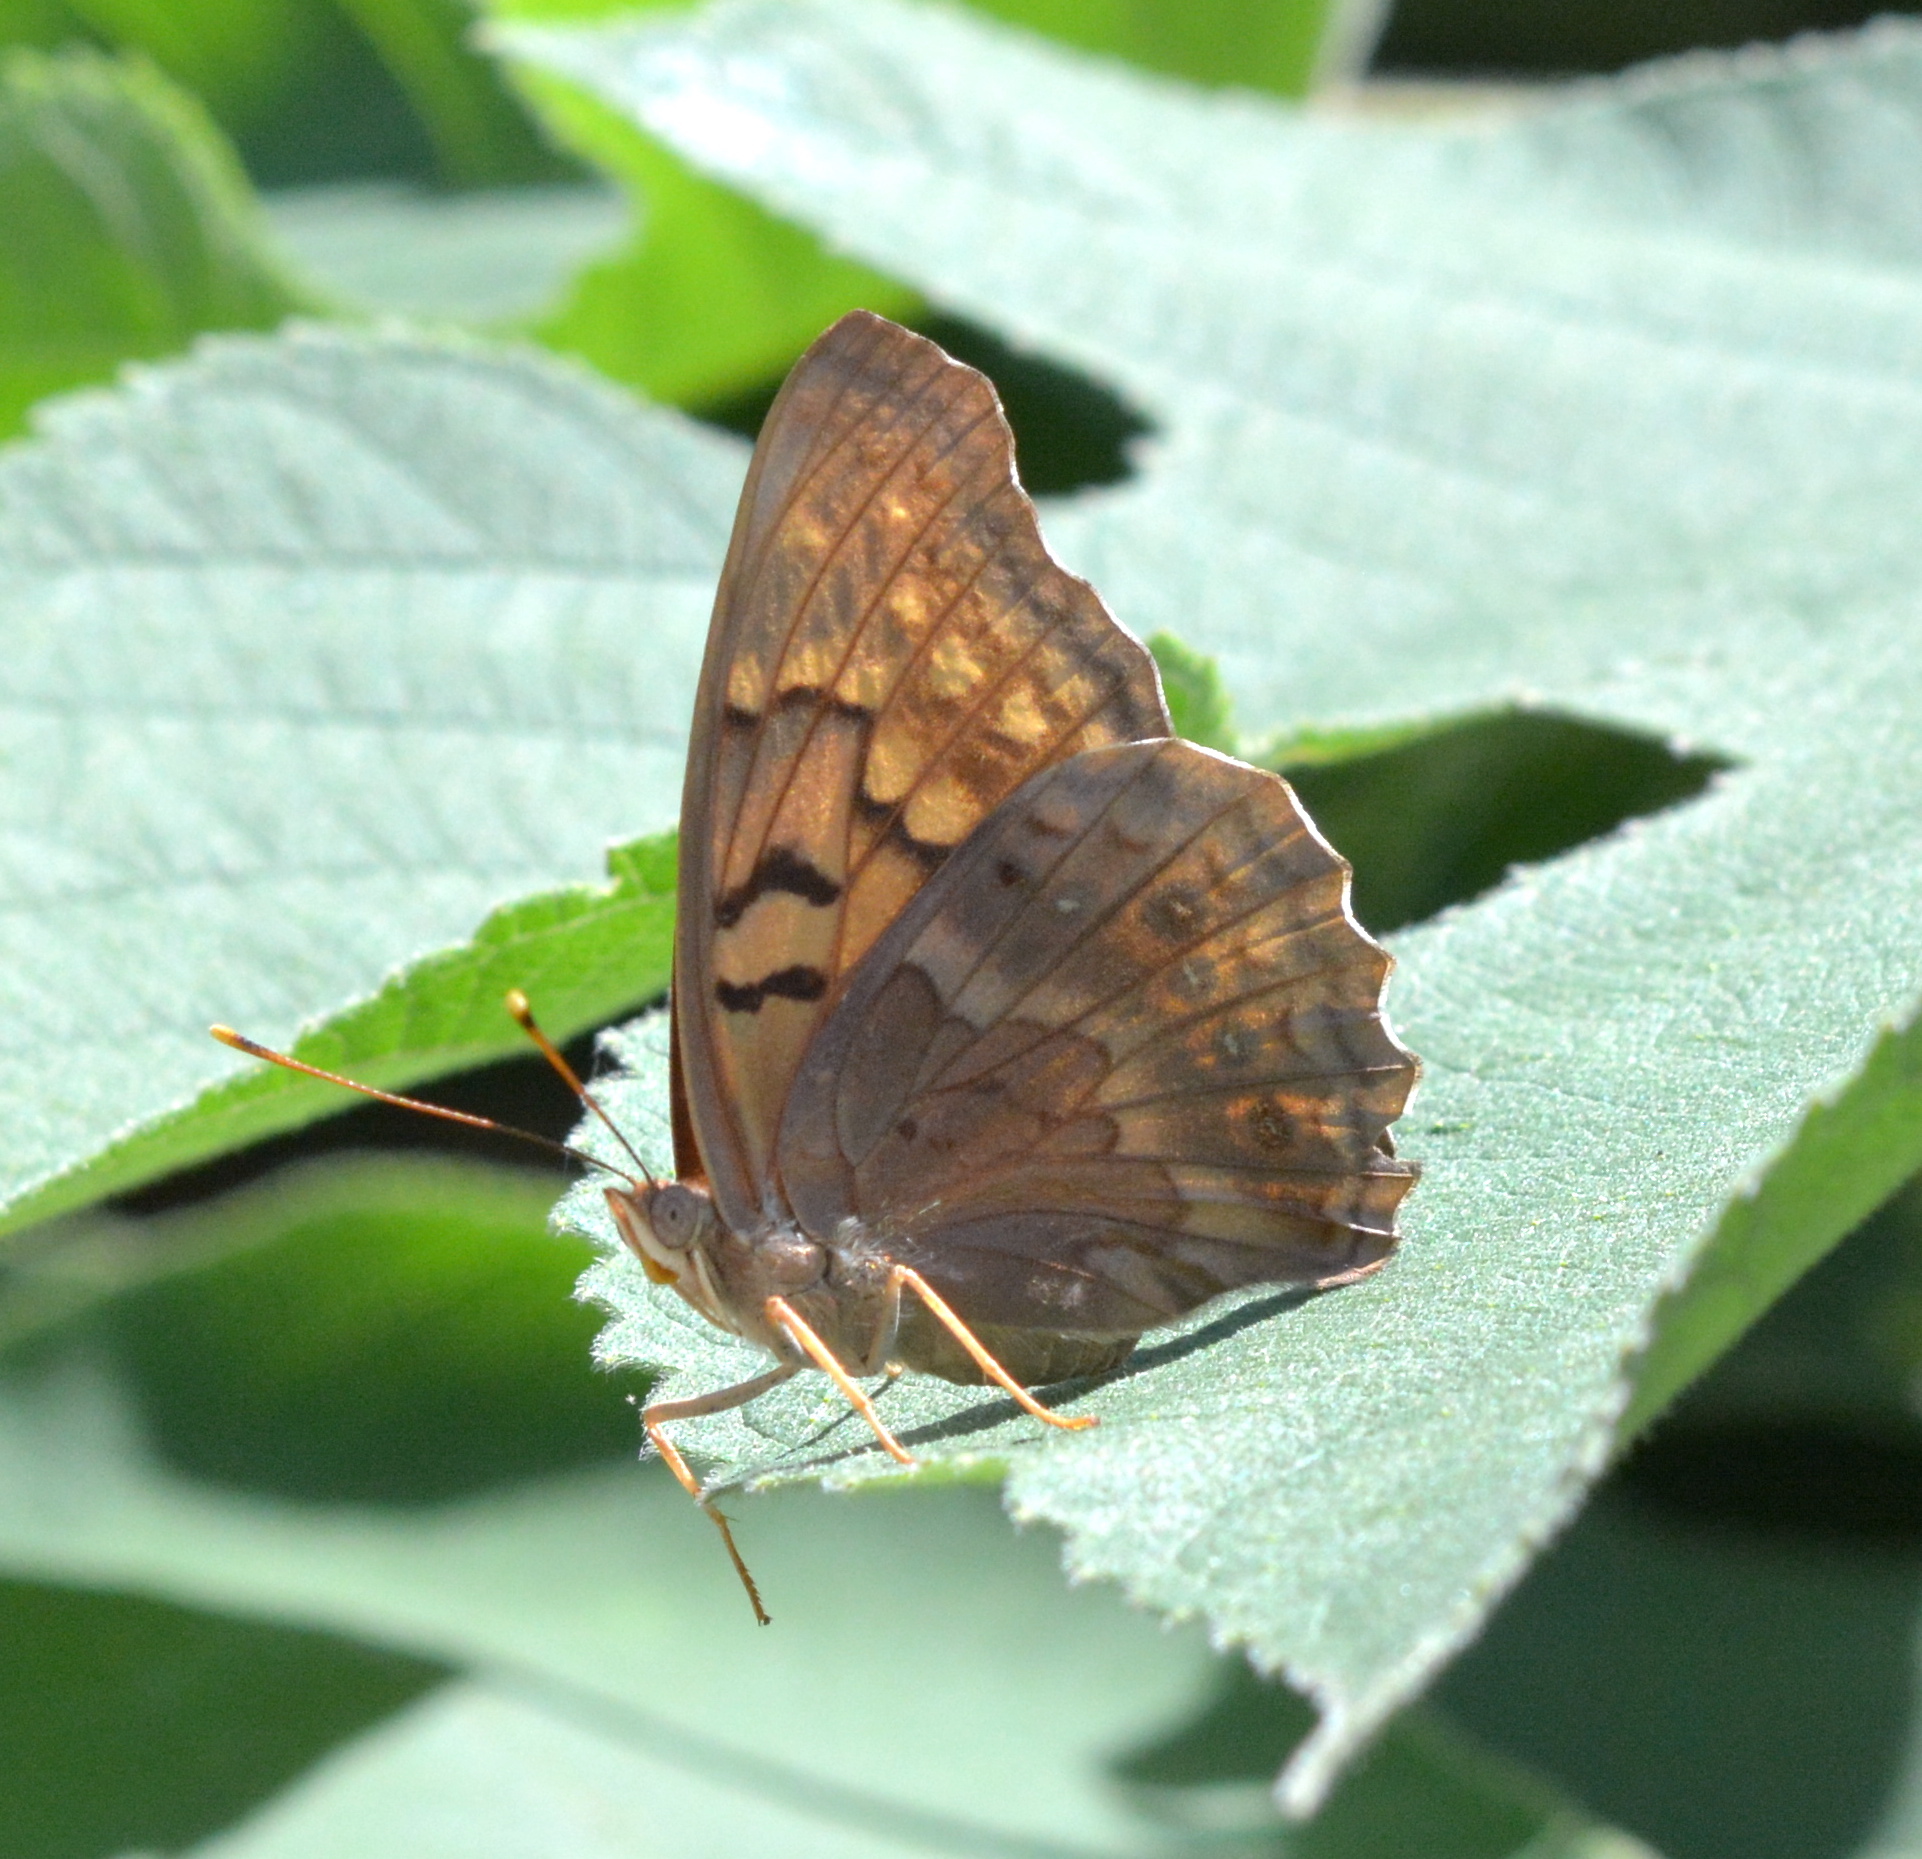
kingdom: Animalia
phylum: Arthropoda
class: Insecta
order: Lepidoptera
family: Nymphalidae
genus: Asterocampa
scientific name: Asterocampa clyton
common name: Tawny emperor
